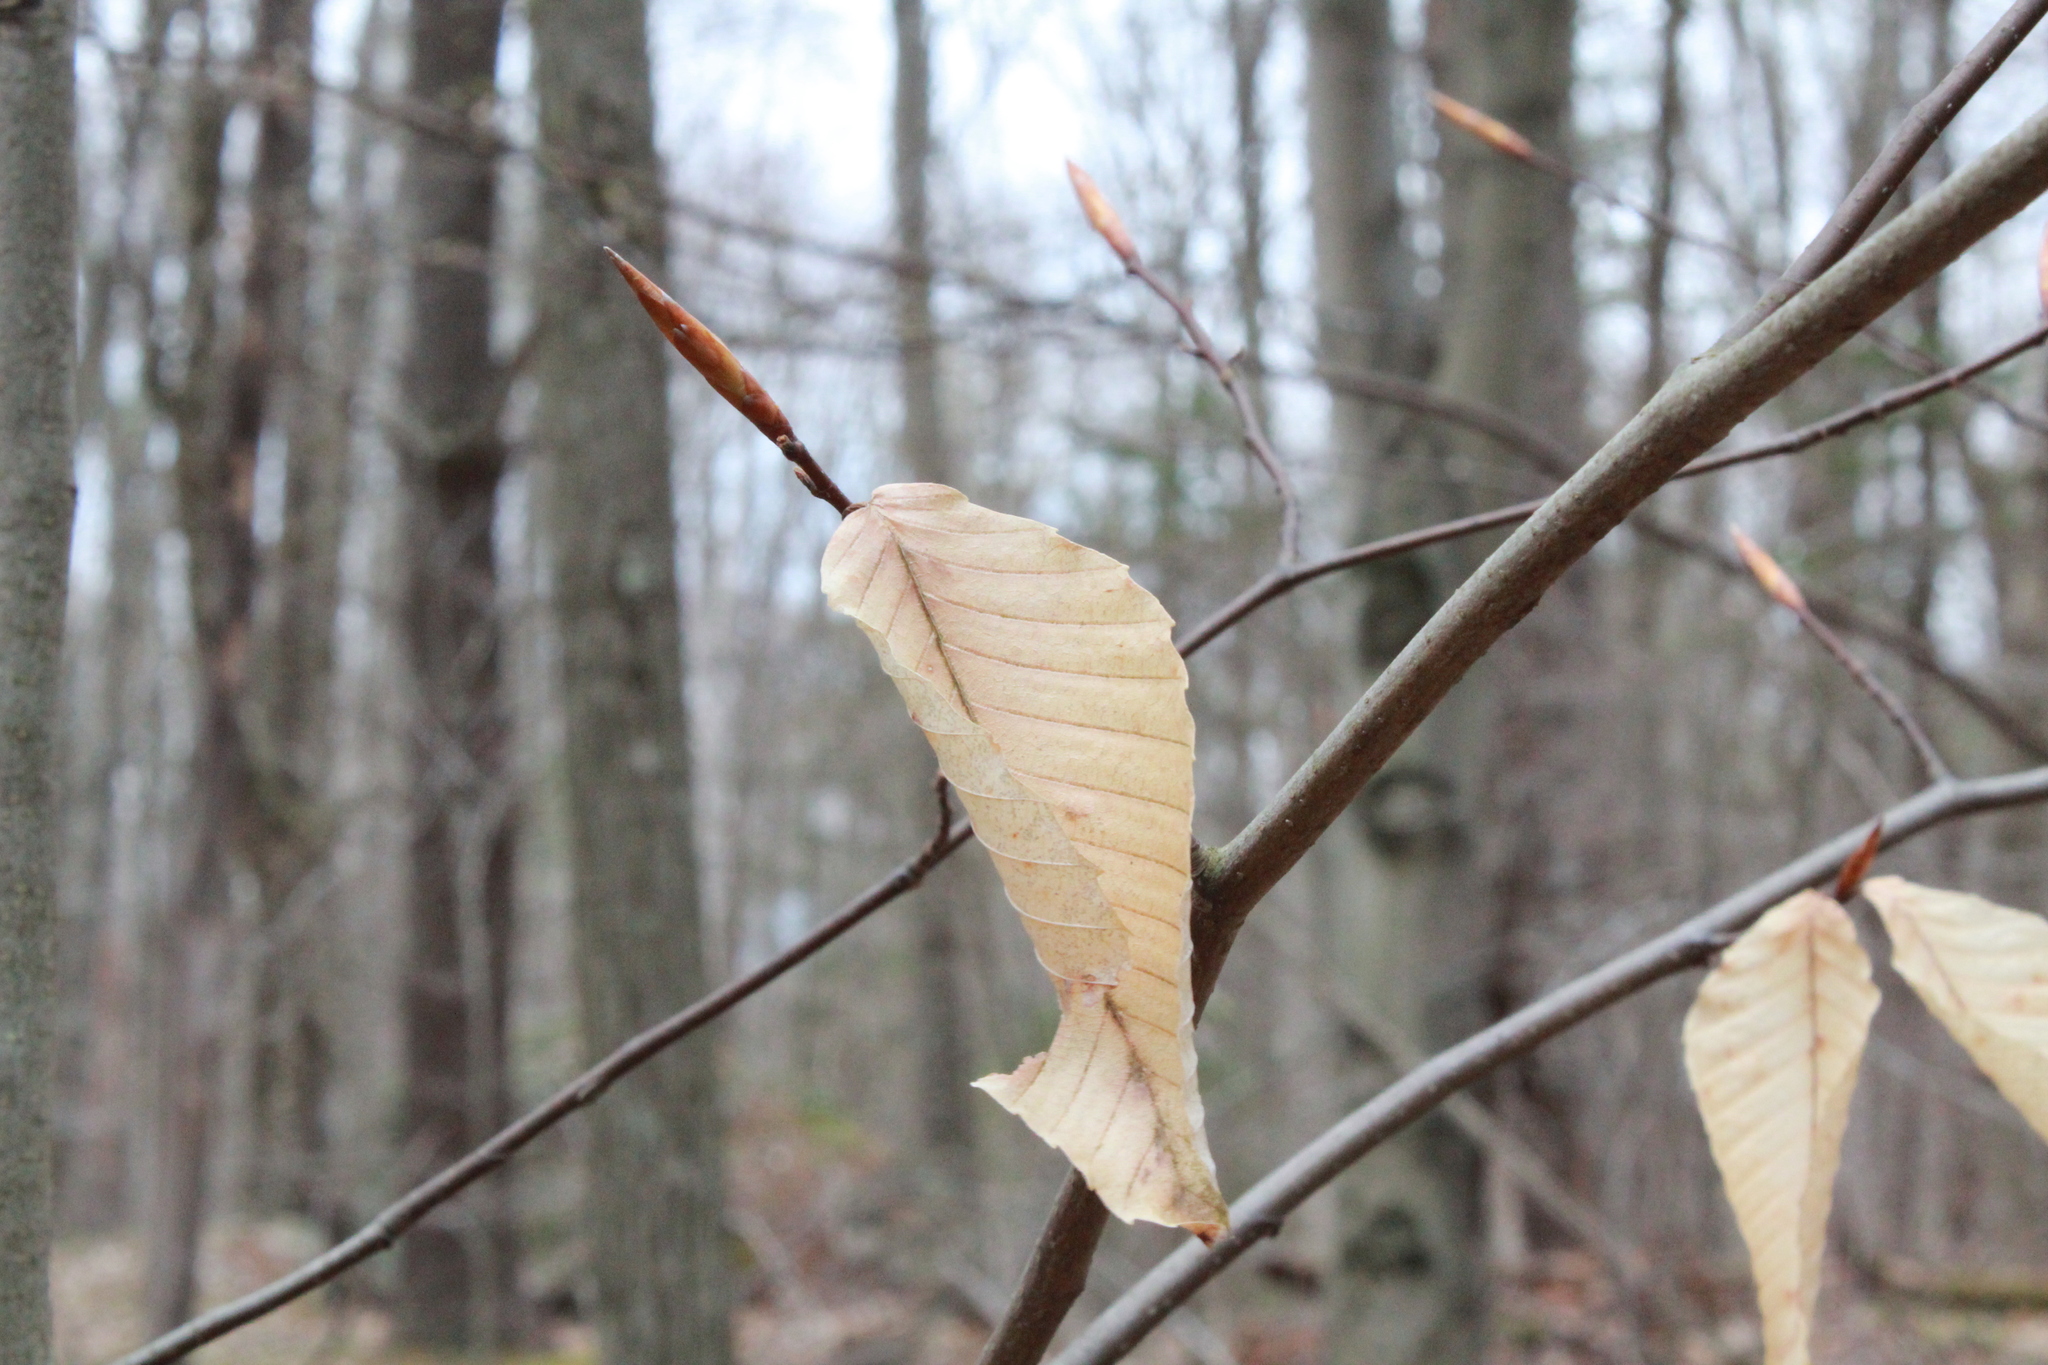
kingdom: Plantae
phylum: Tracheophyta
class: Magnoliopsida
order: Fagales
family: Fagaceae
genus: Fagus
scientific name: Fagus grandifolia
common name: American beech
